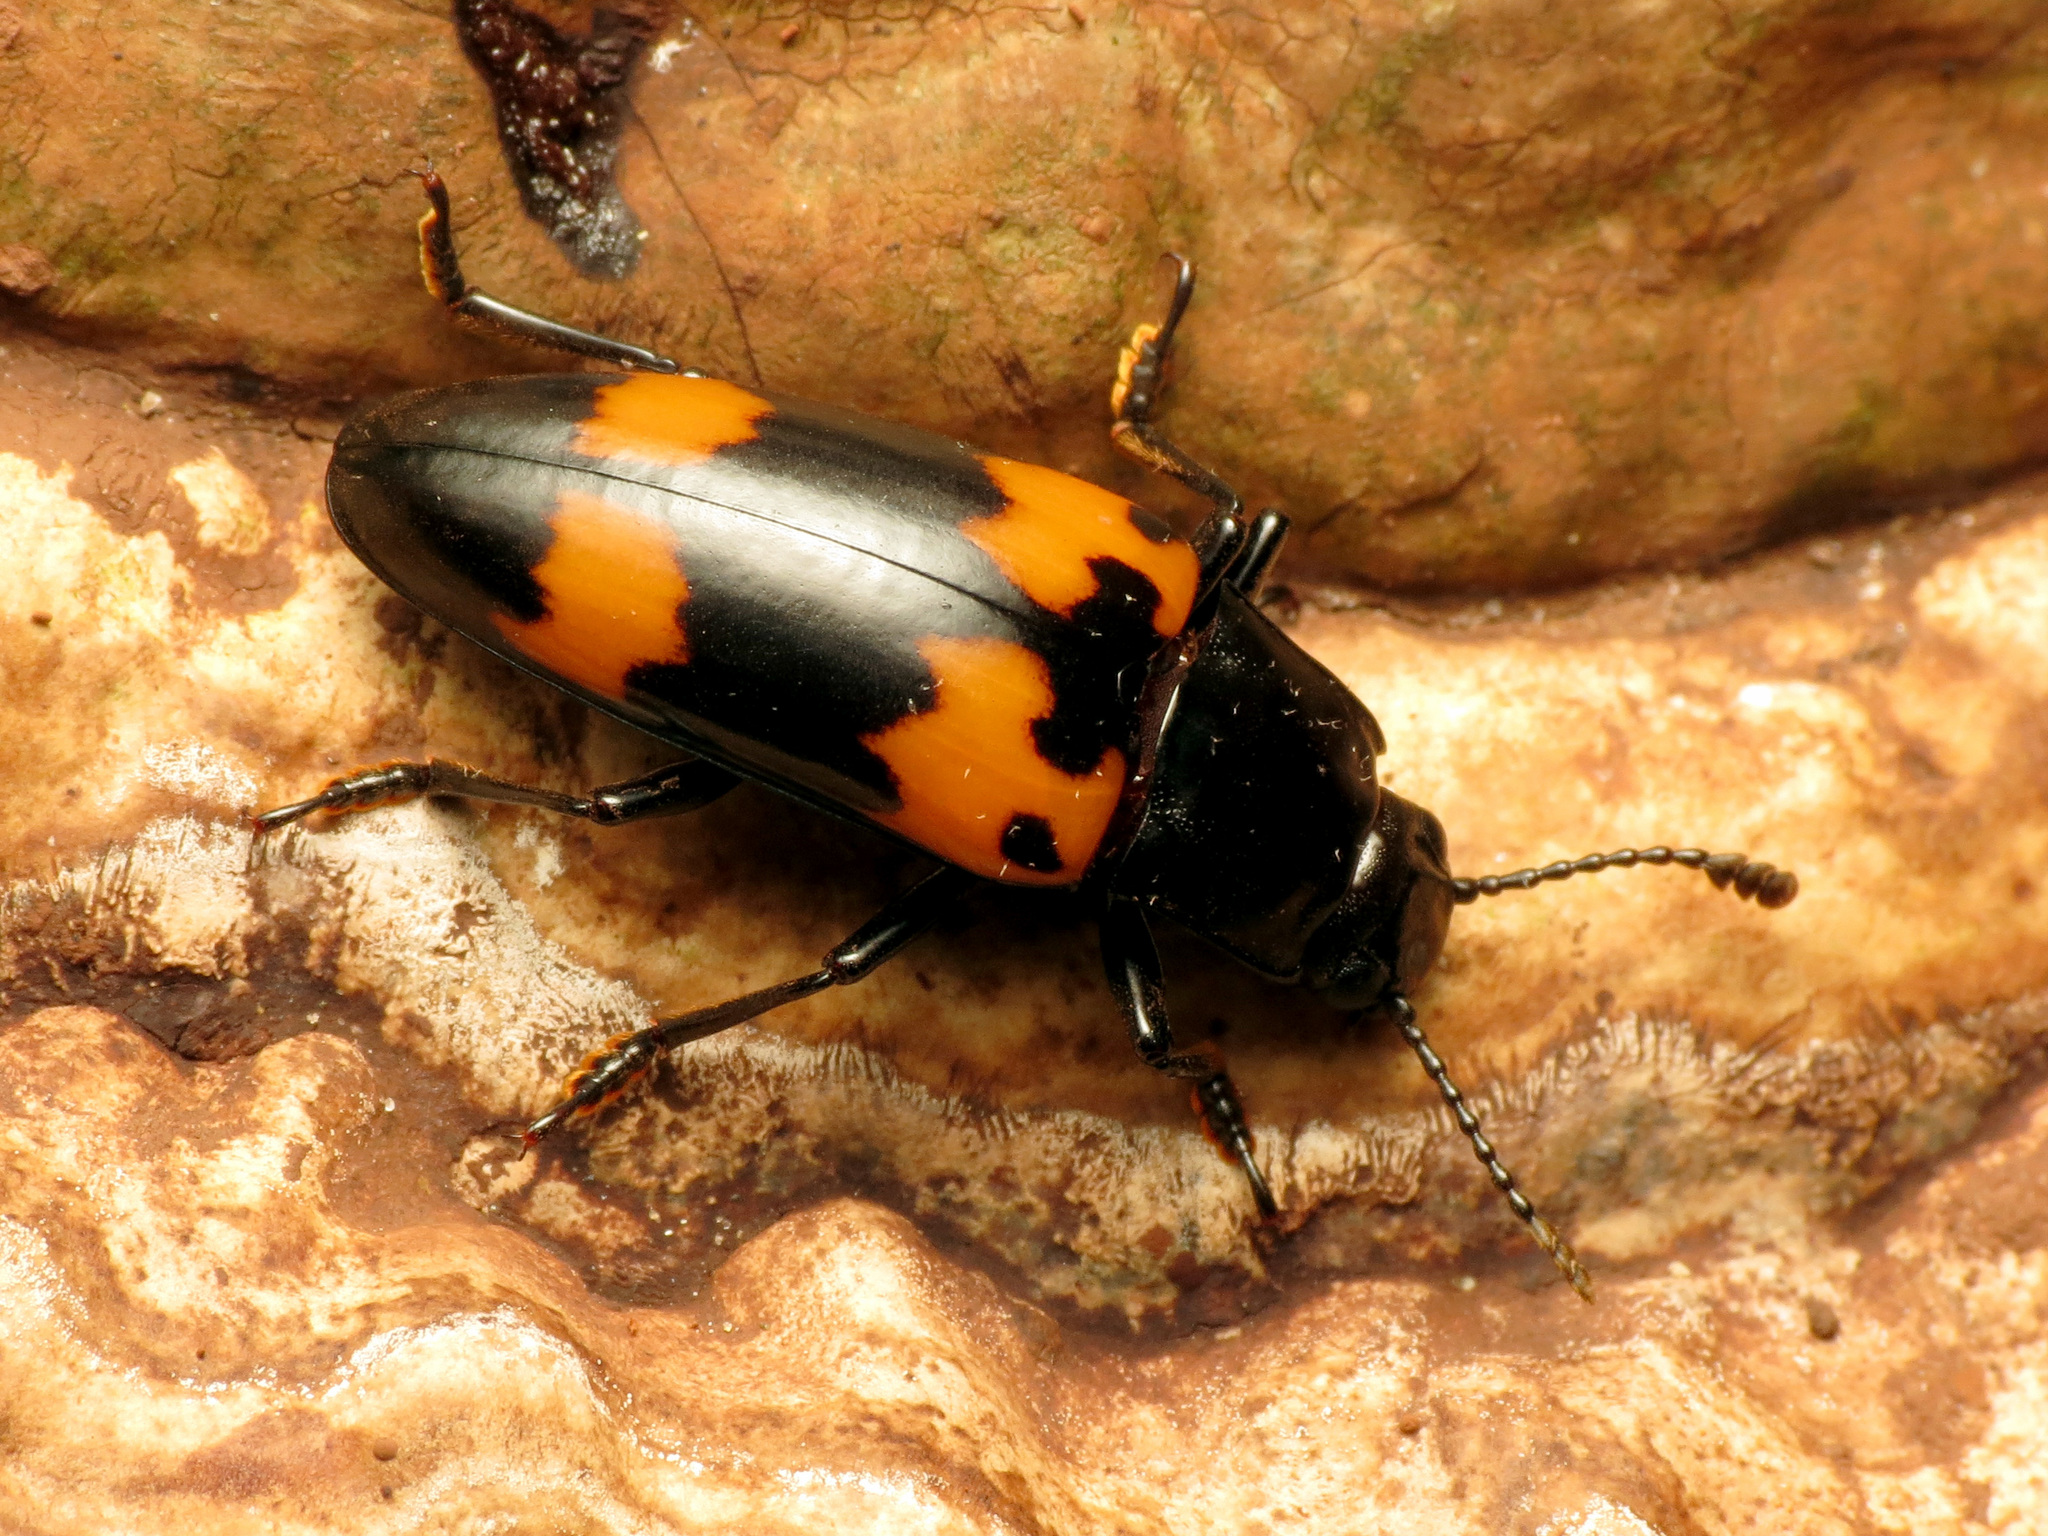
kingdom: Animalia
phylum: Arthropoda
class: Insecta
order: Coleoptera
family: Erotylidae
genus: Megalodacne
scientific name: Megalodacne heros
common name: Pleasing fungus beetle
